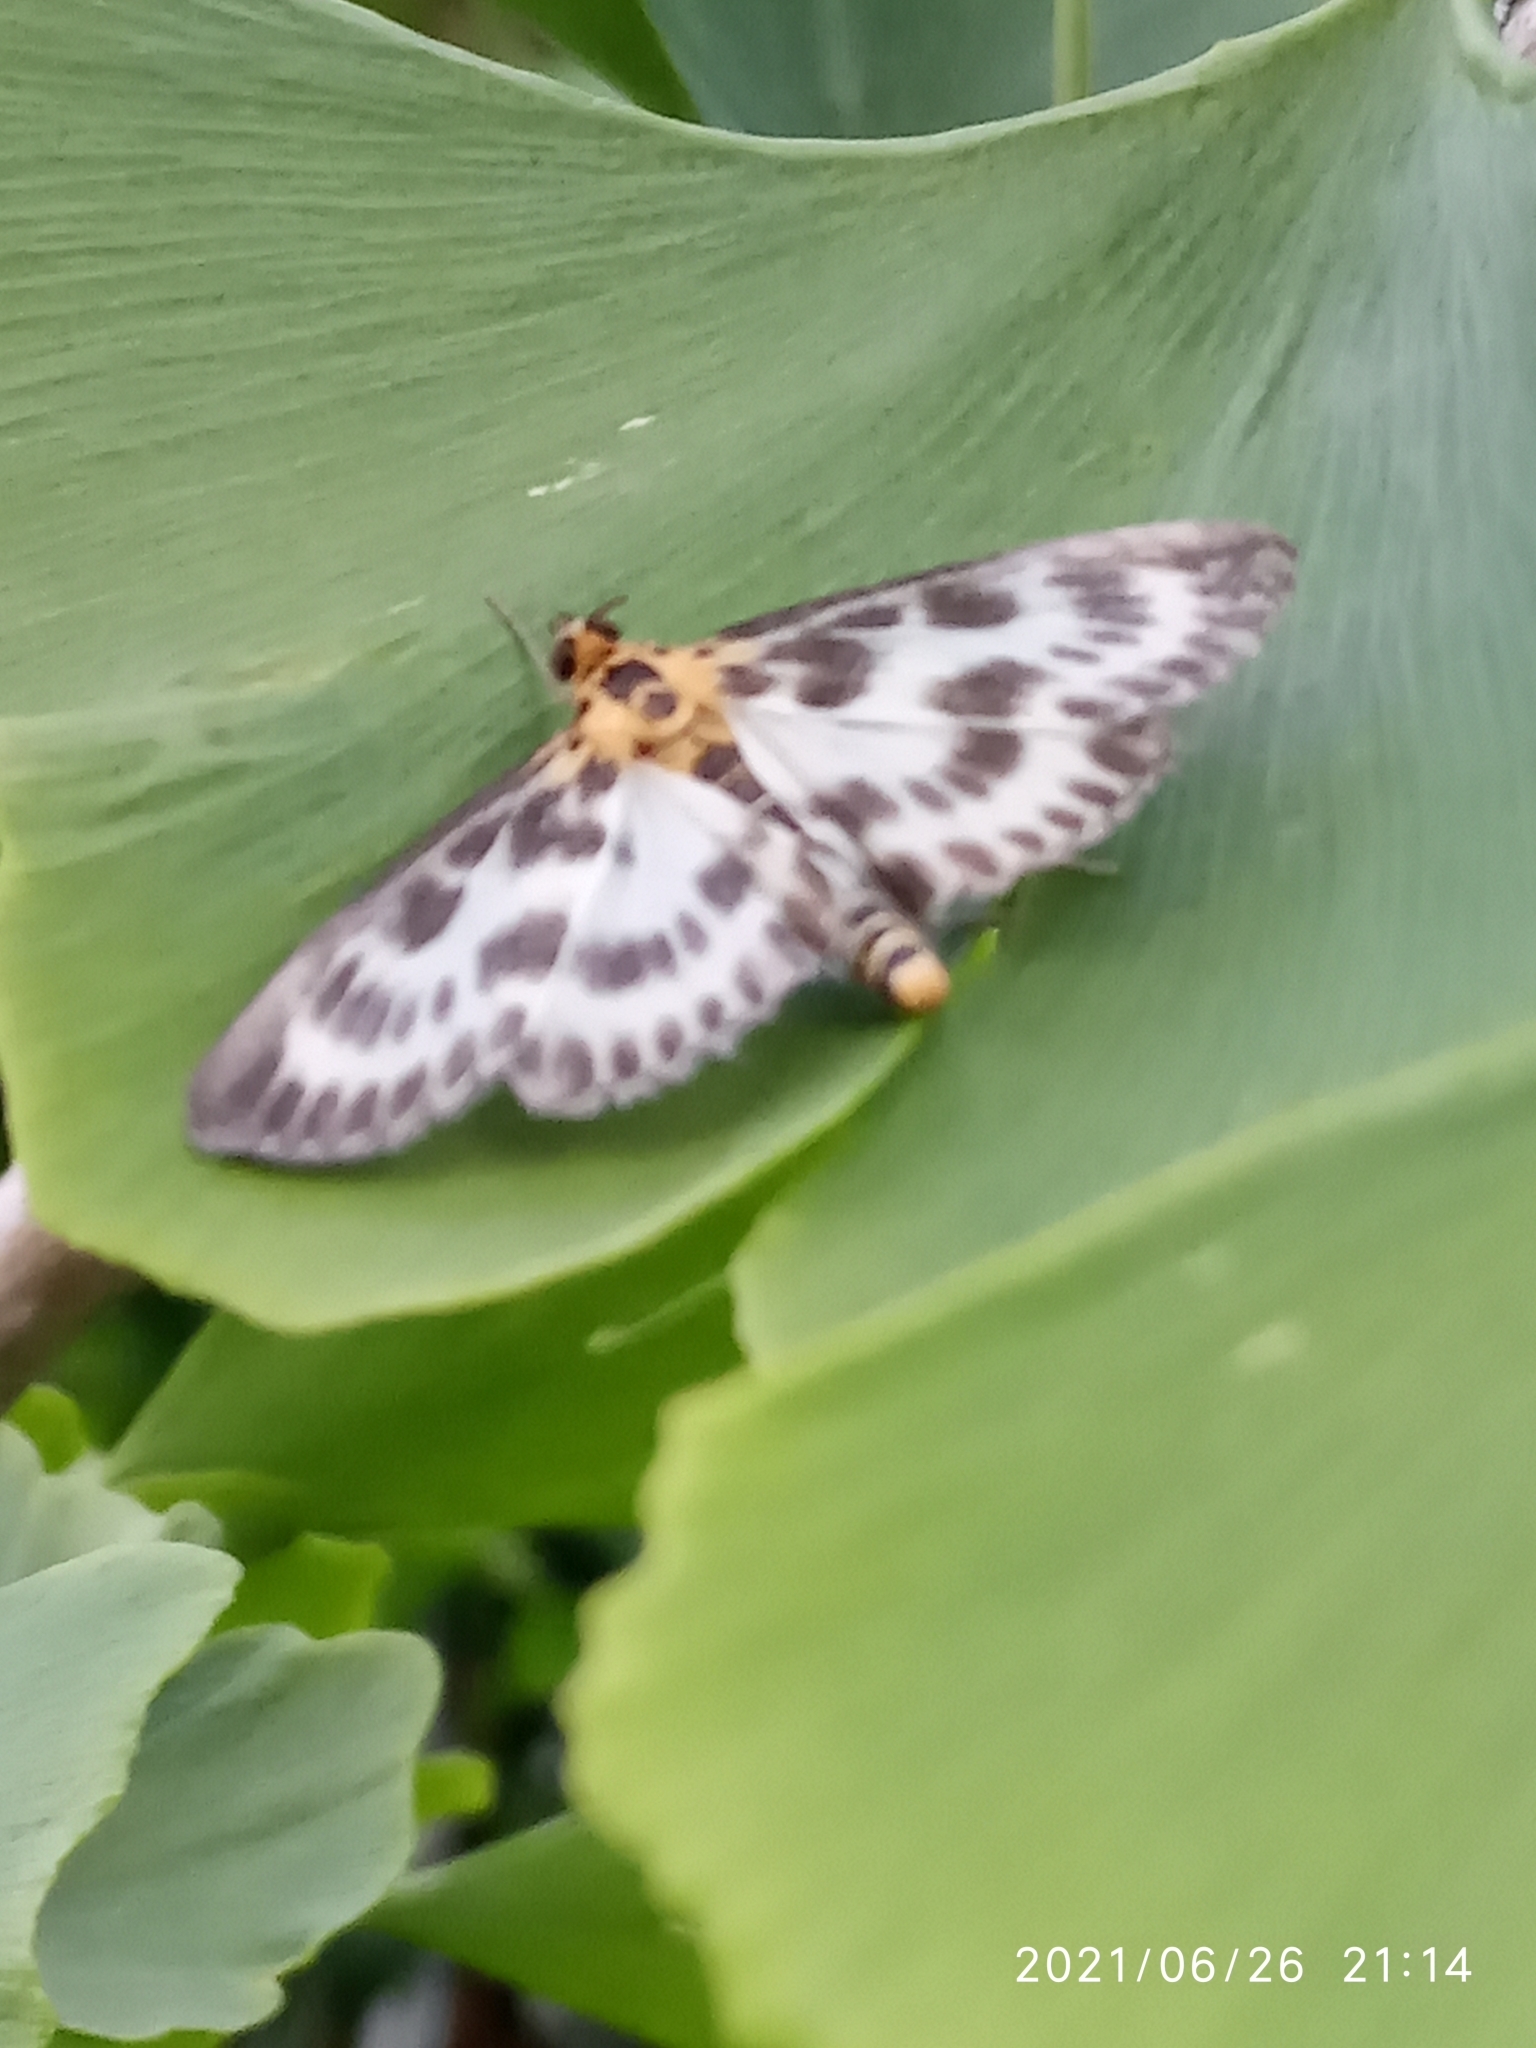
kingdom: Animalia
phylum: Arthropoda
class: Insecta
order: Lepidoptera
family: Crambidae
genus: Anania
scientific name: Anania hortulata
